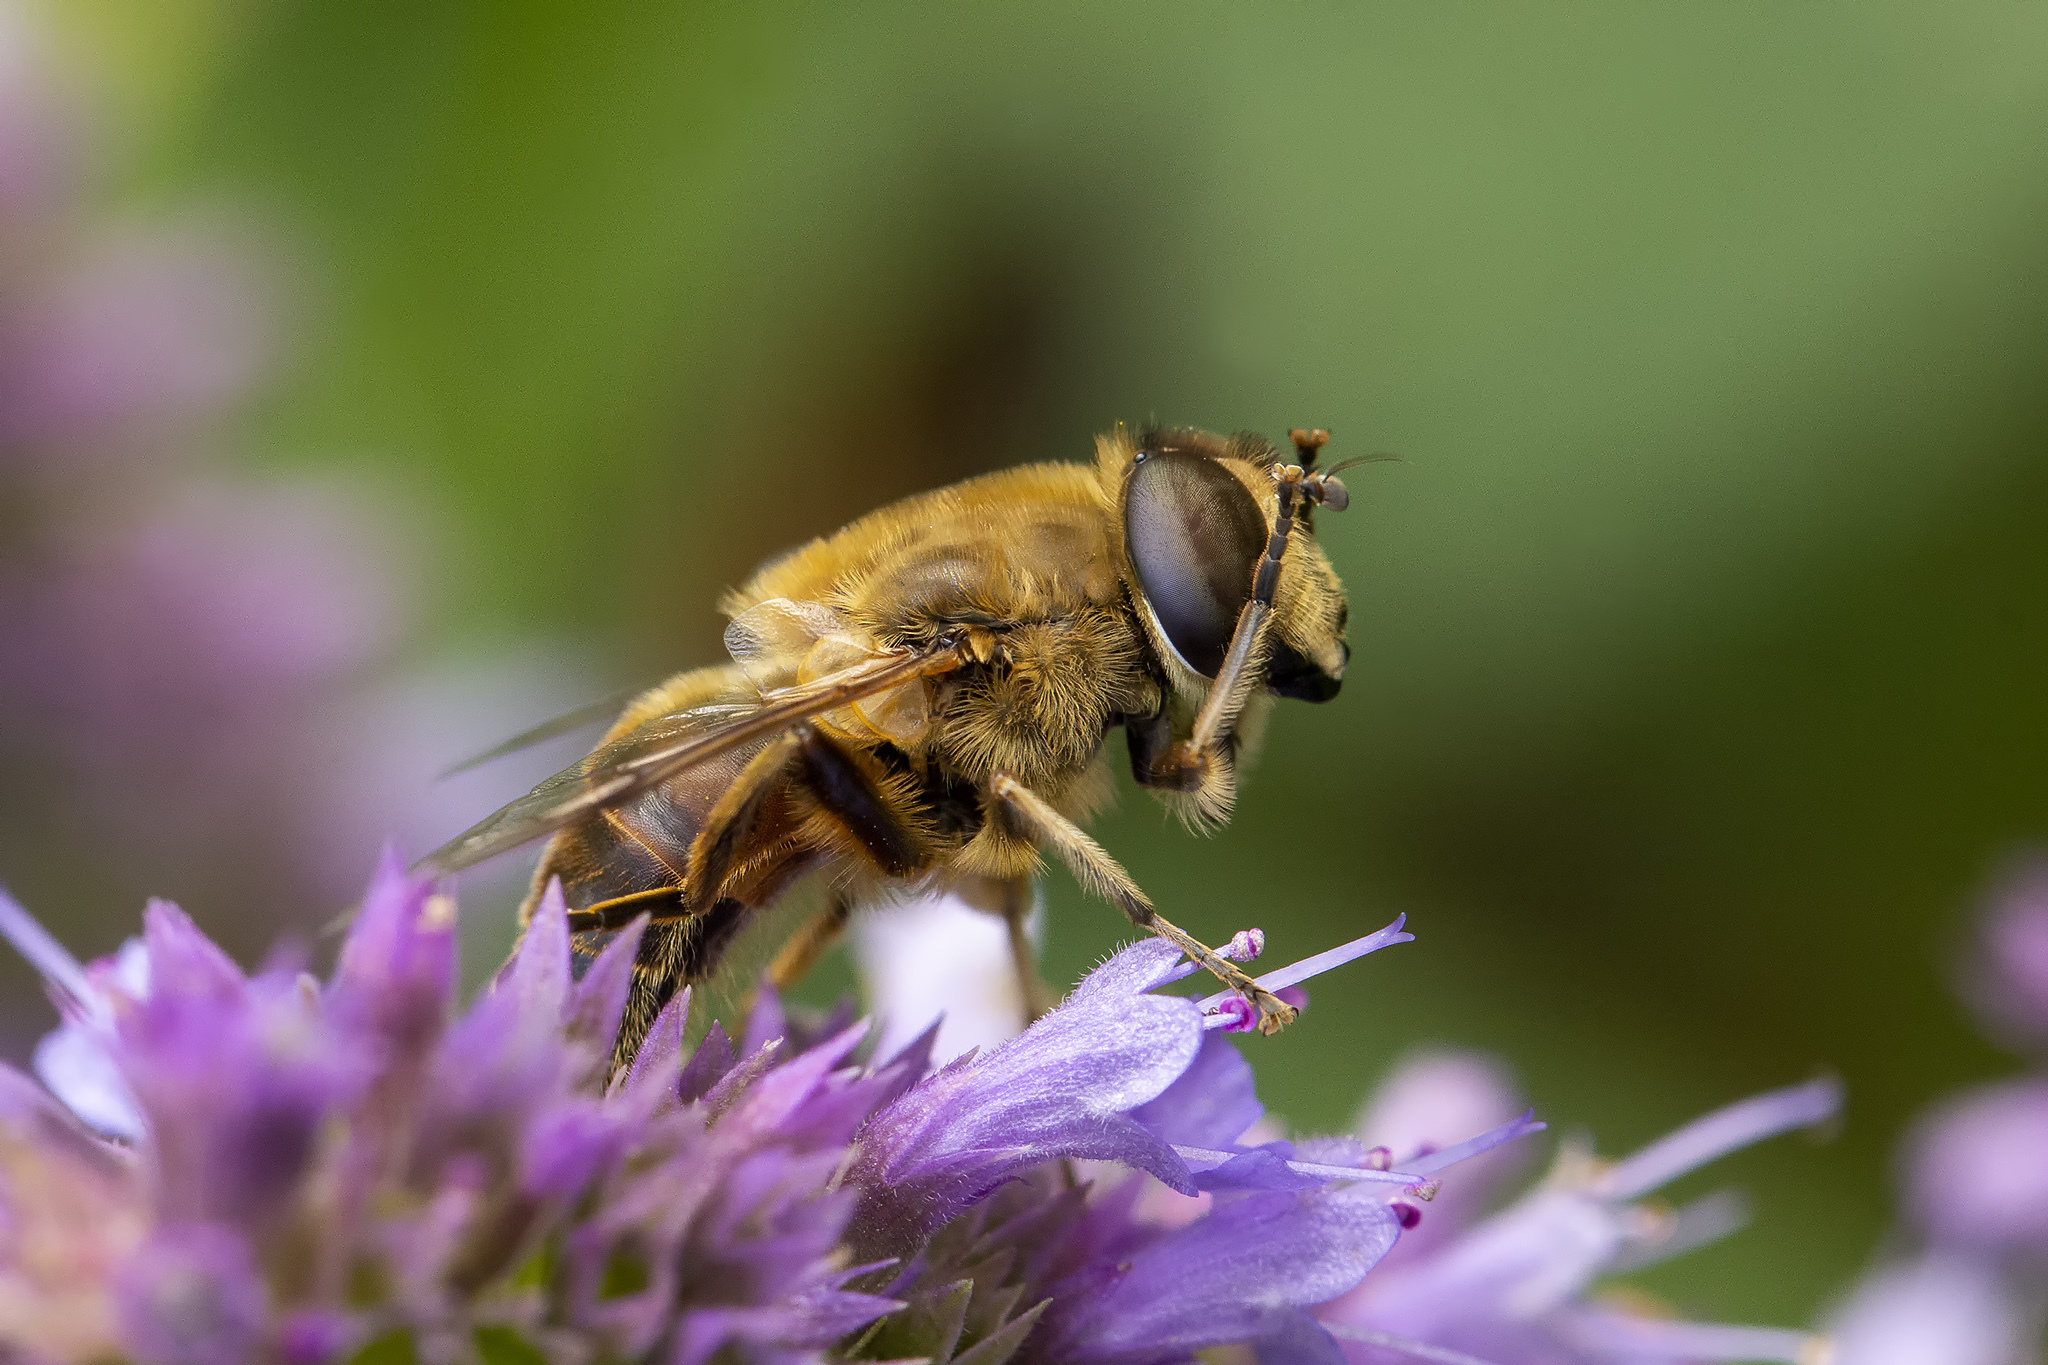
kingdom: Animalia
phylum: Arthropoda
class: Insecta
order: Diptera
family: Syrphidae
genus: Eristalis
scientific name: Eristalis tenax
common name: Drone fly
